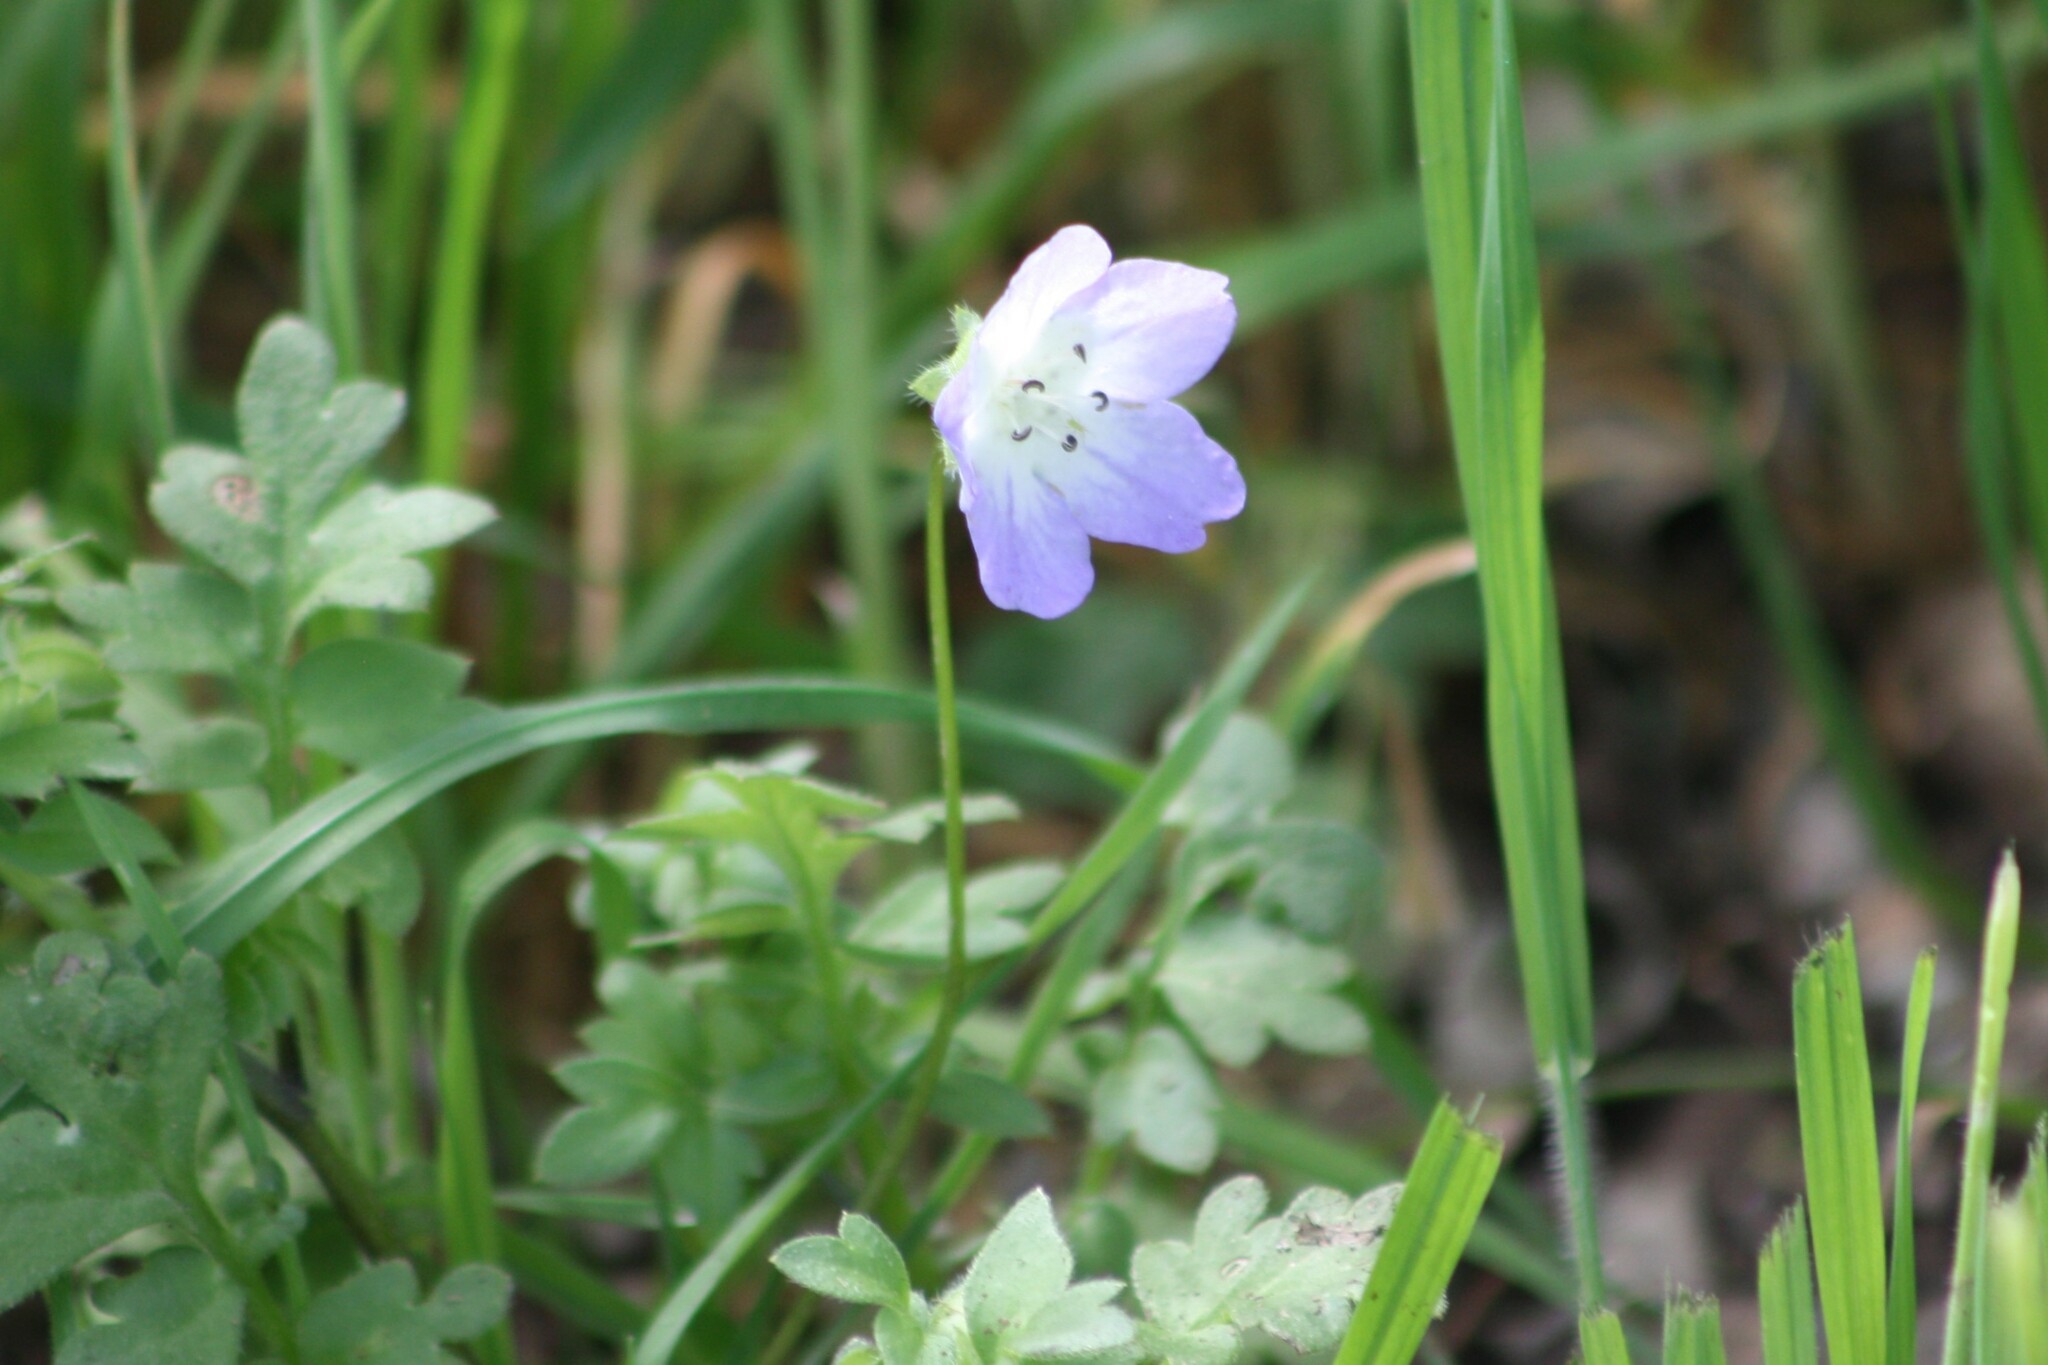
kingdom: Plantae
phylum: Tracheophyta
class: Magnoliopsida
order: Boraginales
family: Hydrophyllaceae
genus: Nemophila
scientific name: Nemophila phacelioides
